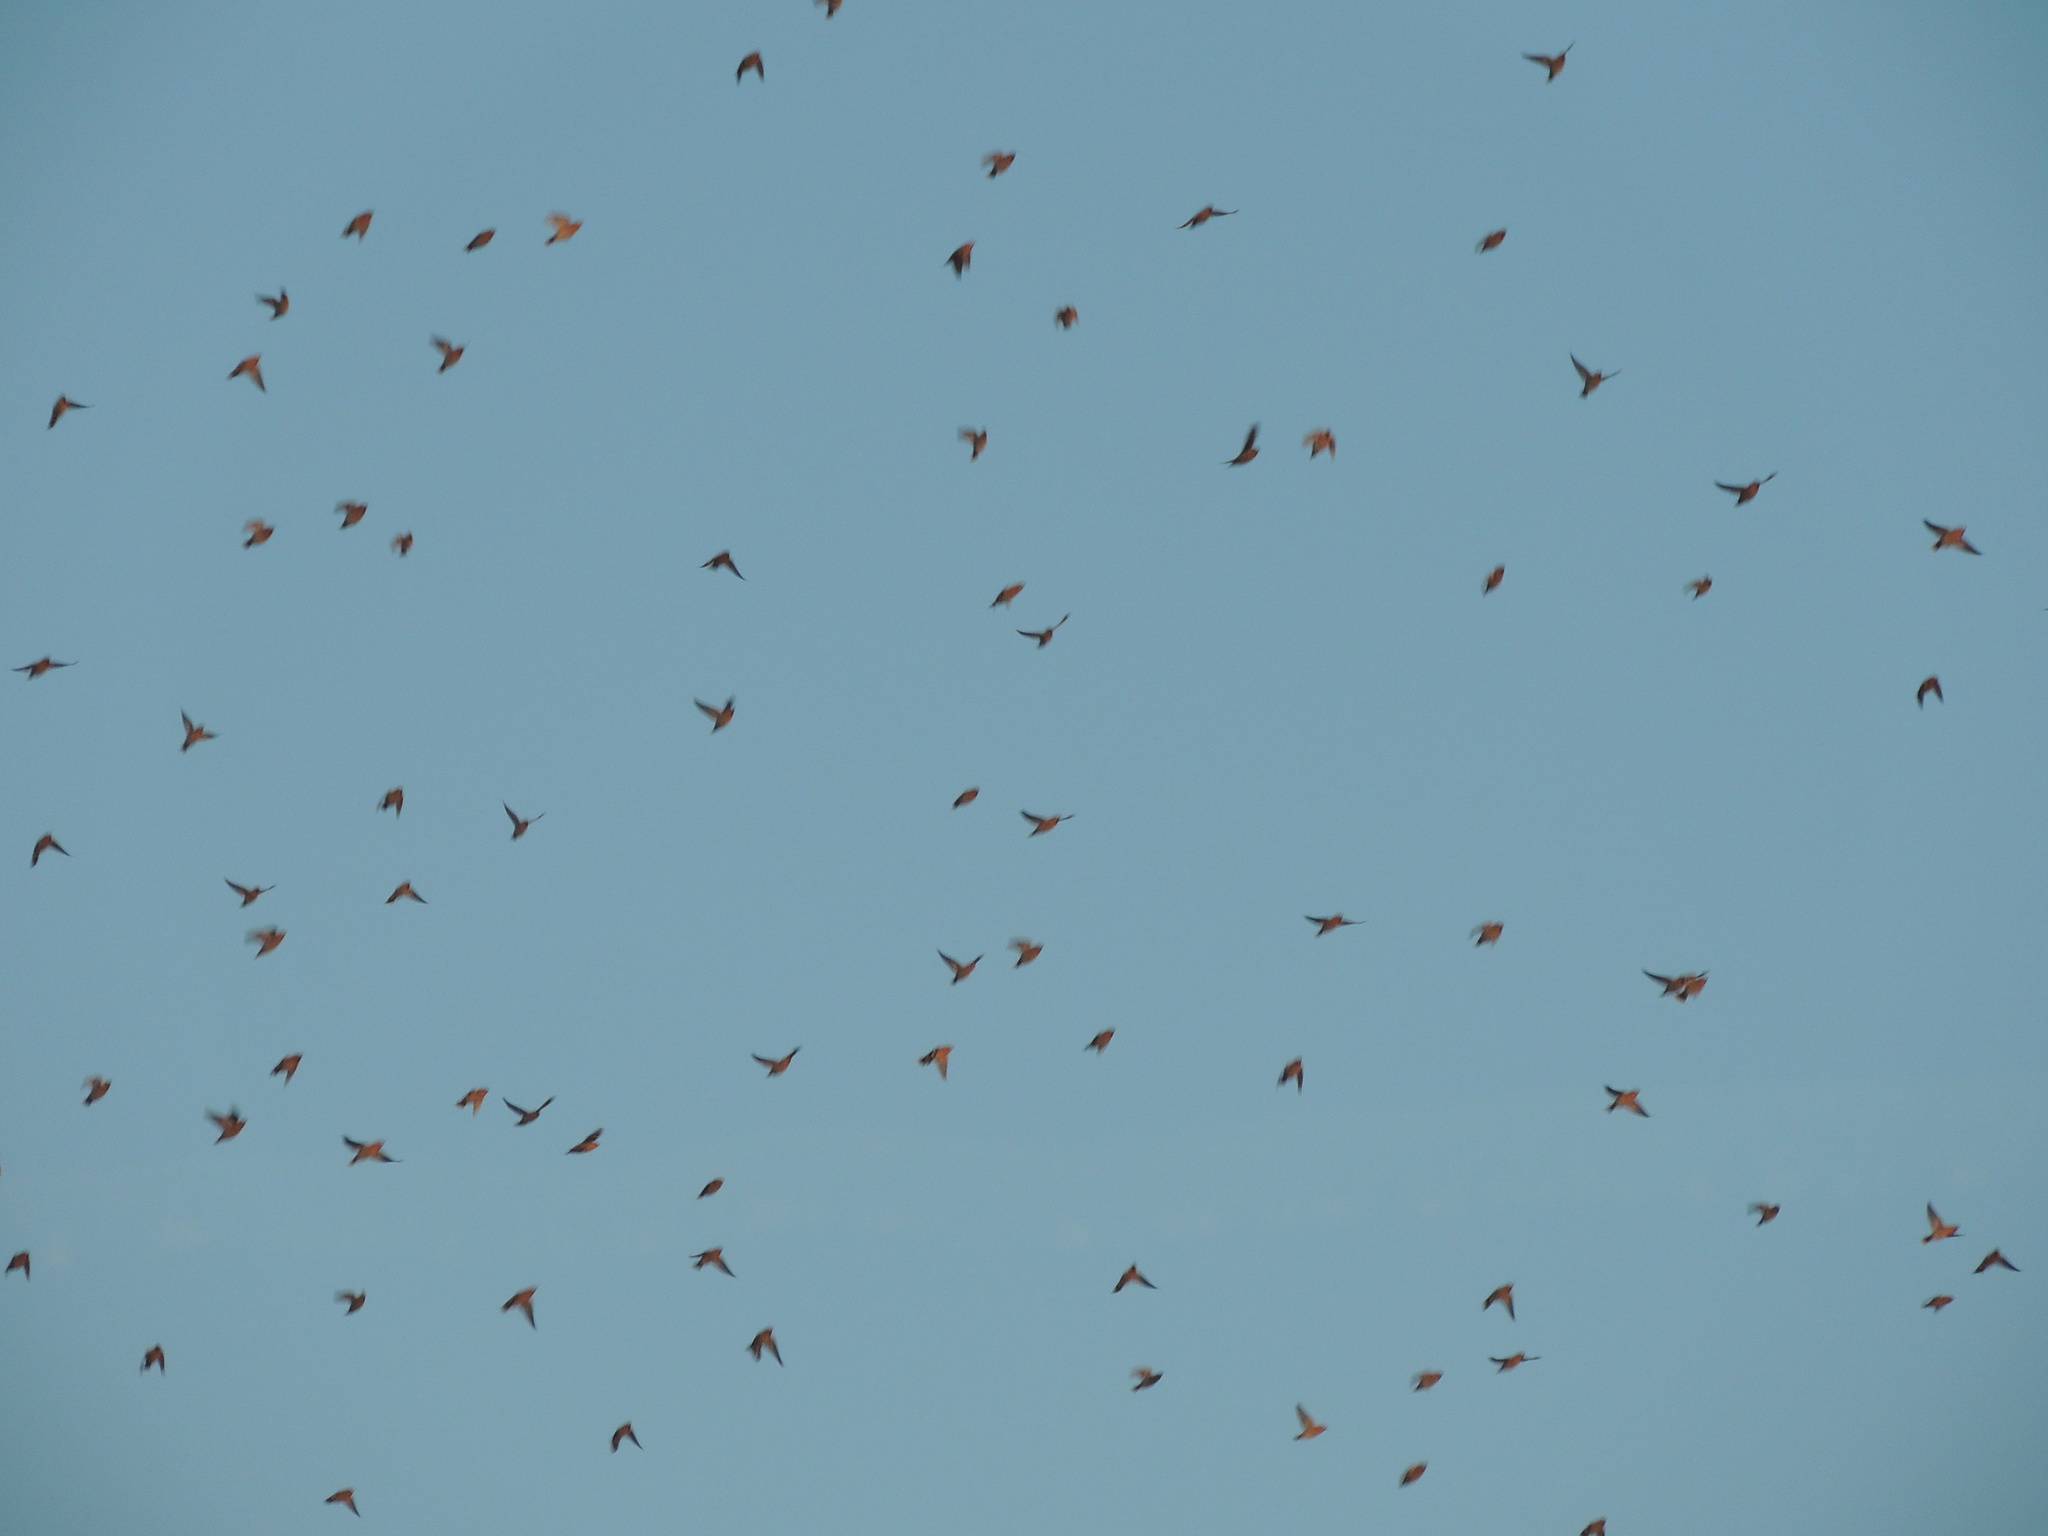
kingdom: Animalia
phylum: Chordata
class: Aves
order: Passeriformes
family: Bombycillidae
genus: Bombycilla
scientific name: Bombycilla garrulus
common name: Bohemian waxwing
